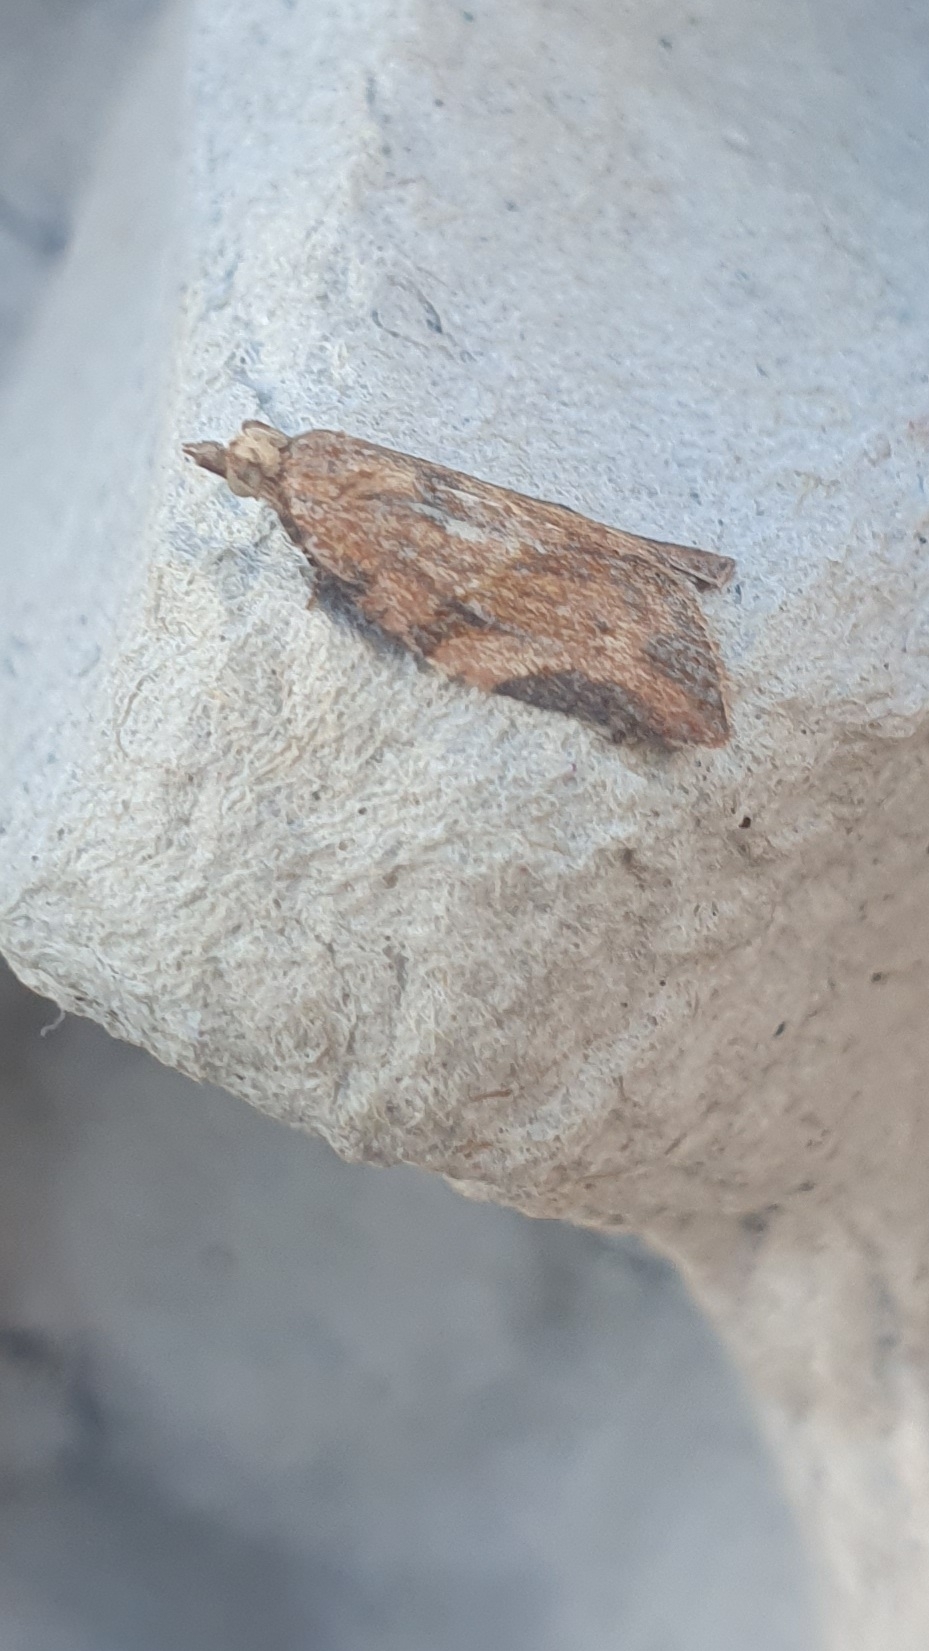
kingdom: Animalia
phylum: Arthropoda
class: Insecta
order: Lepidoptera
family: Tortricidae
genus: Epiphyas
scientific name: Epiphyas postvittana
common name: Light brown apple moth
